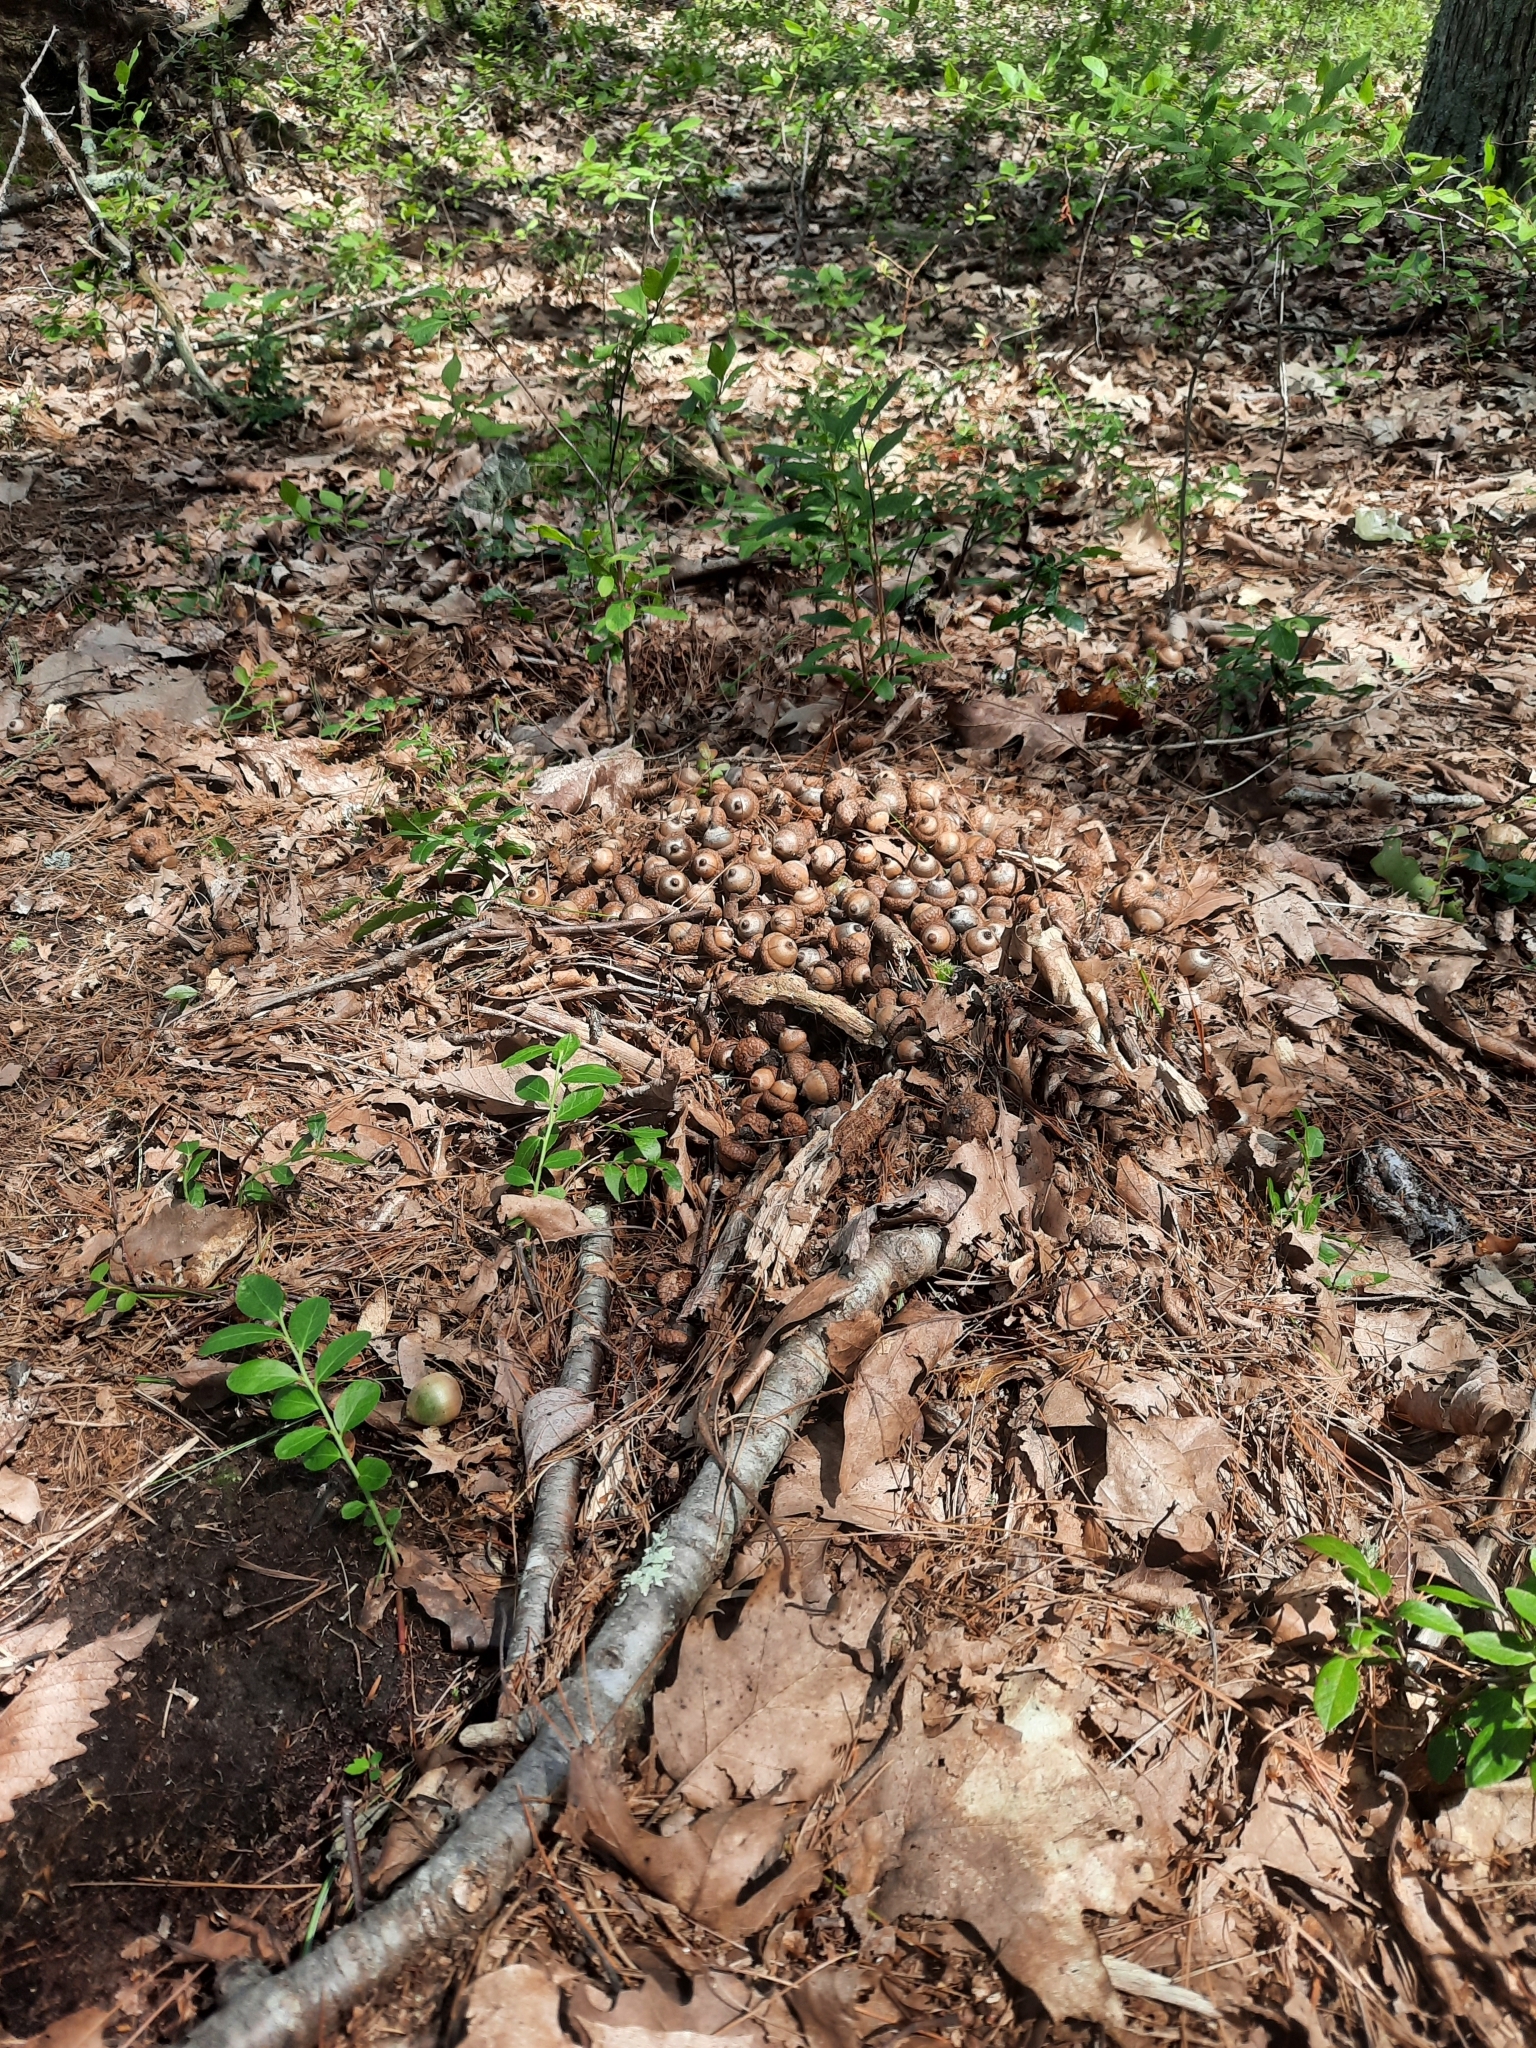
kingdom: Animalia
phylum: Chordata
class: Mammalia
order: Rodentia
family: Sciuridae
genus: Sciurus
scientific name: Sciurus carolinensis
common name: Eastern gray squirrel
